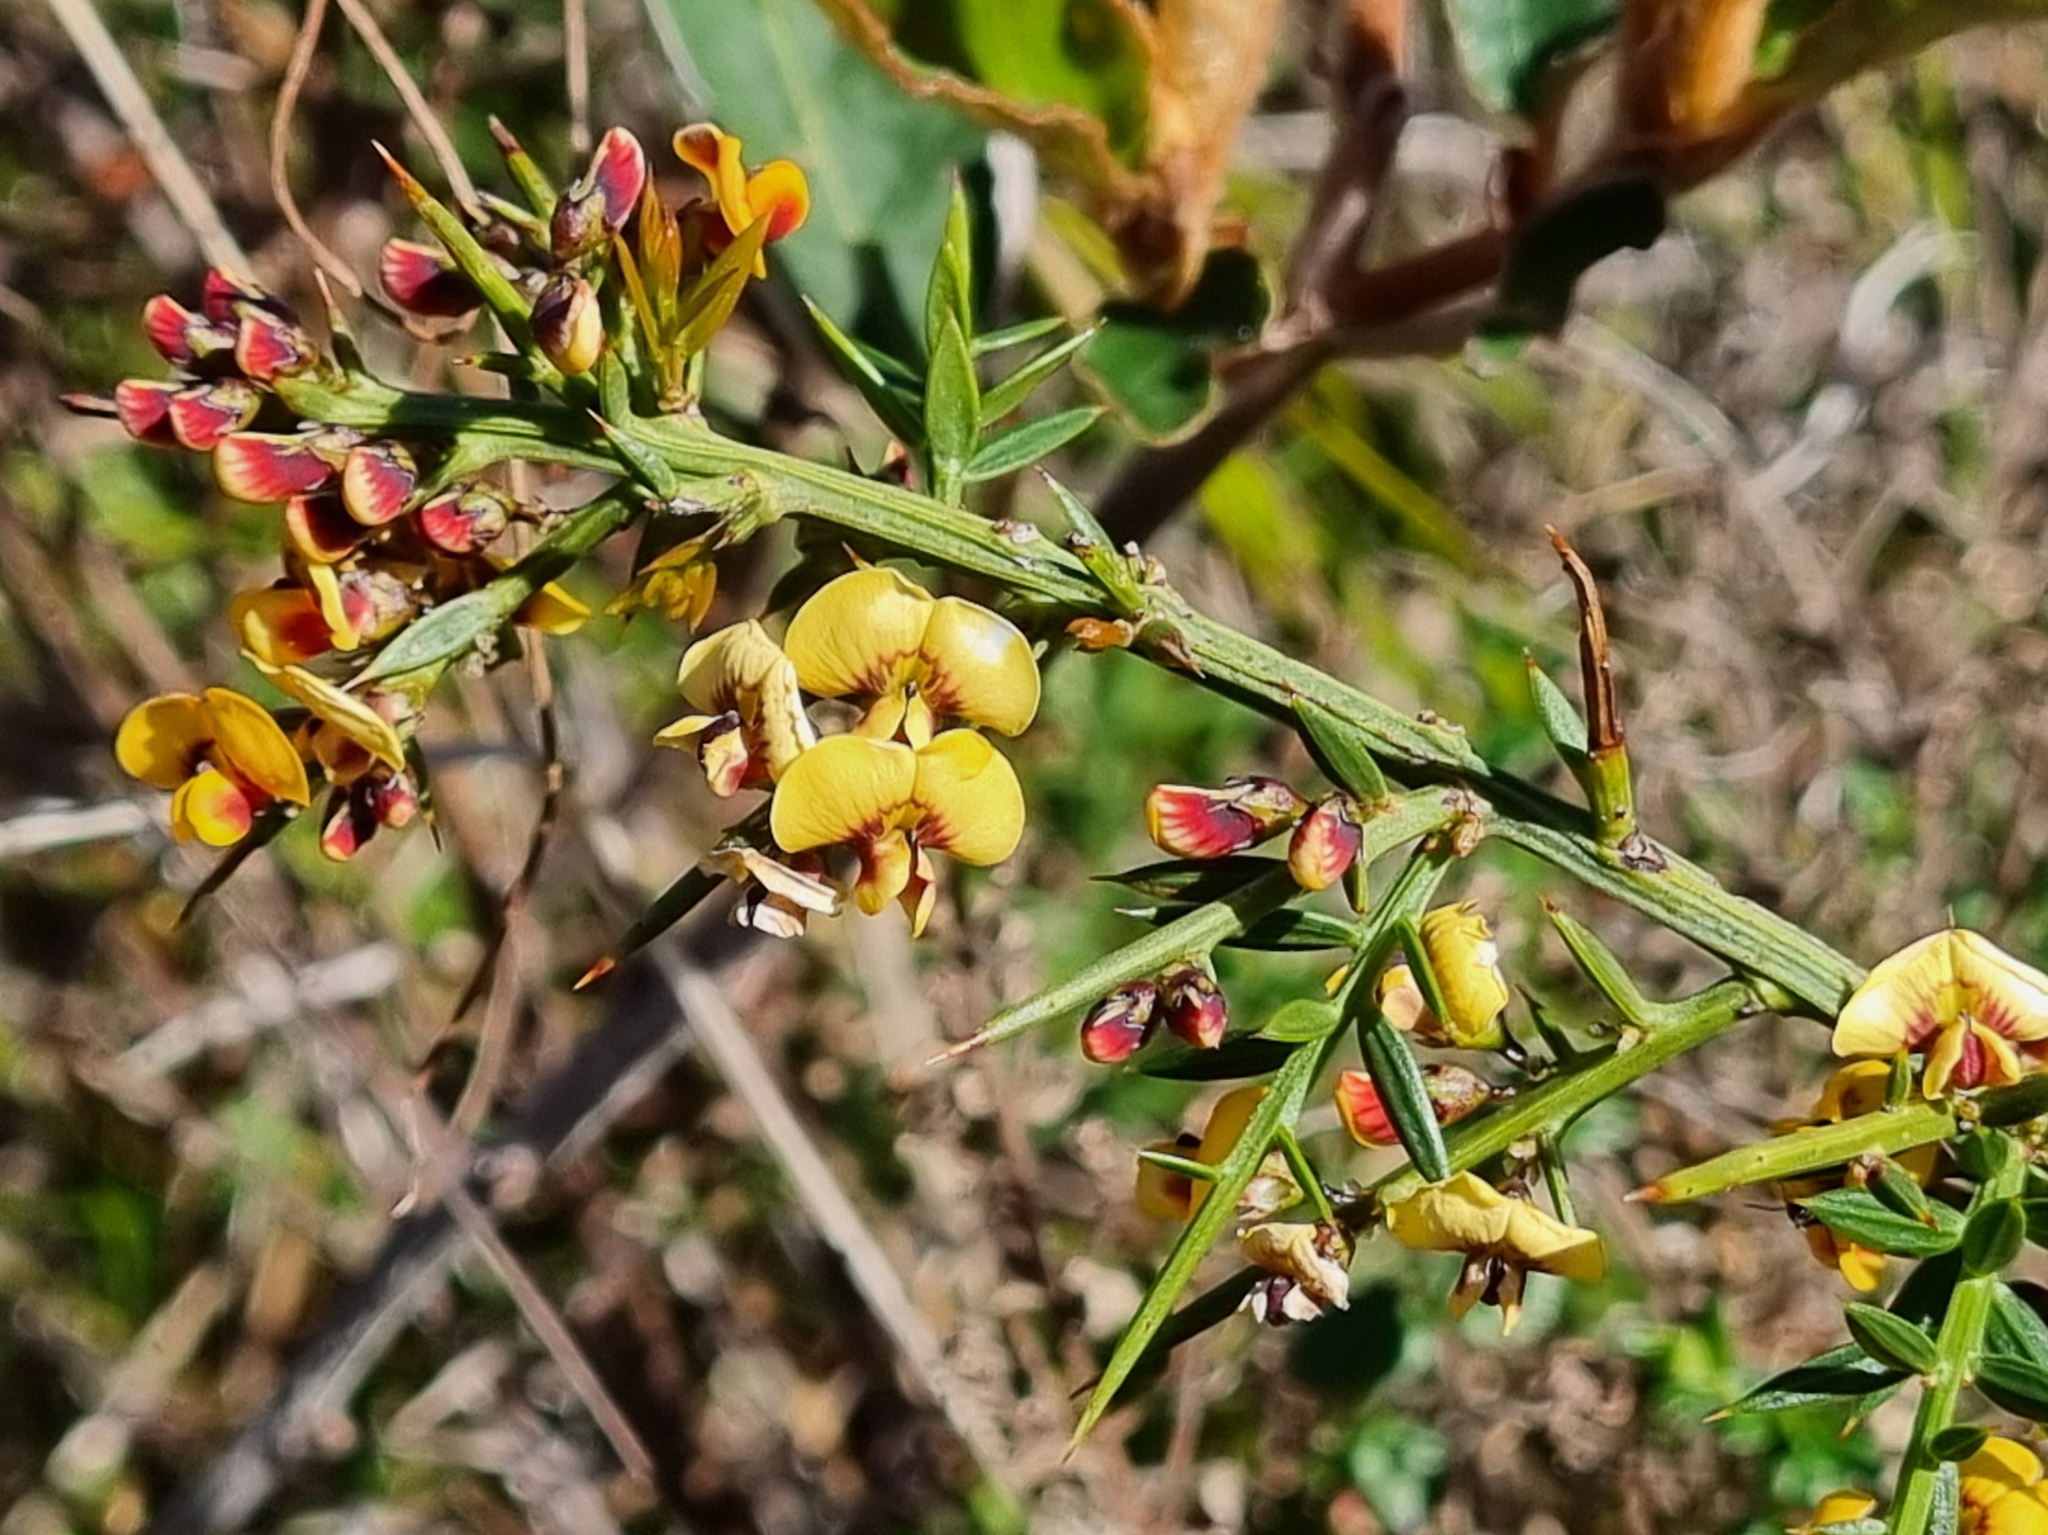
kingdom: Plantae
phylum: Tracheophyta
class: Magnoliopsida
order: Fabales
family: Fabaceae
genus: Daviesia
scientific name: Daviesia ulicifolia
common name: Gorse bitter-pea
